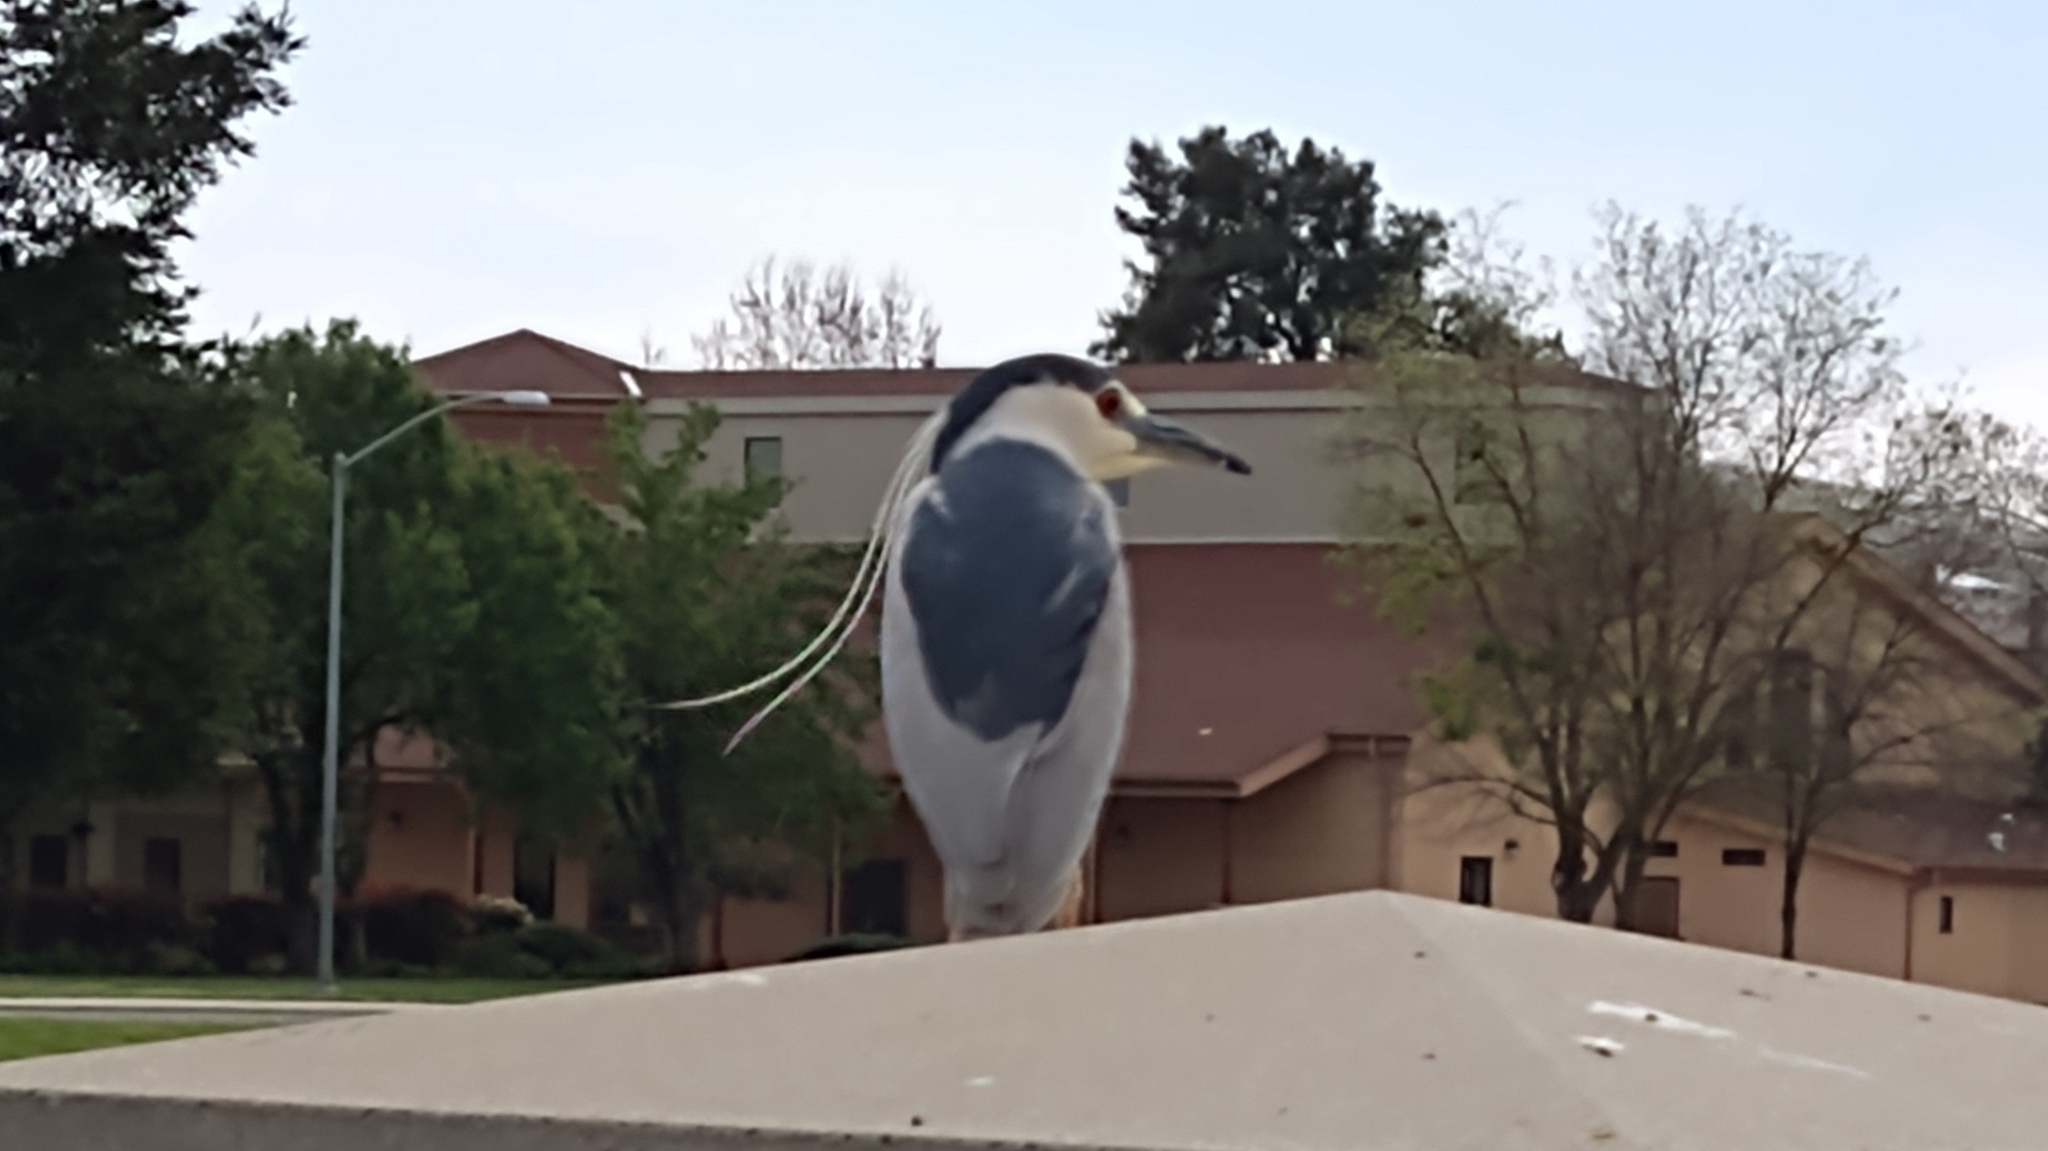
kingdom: Animalia
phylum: Chordata
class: Aves
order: Pelecaniformes
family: Ardeidae
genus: Nycticorax
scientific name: Nycticorax nycticorax
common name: Black-crowned night heron
